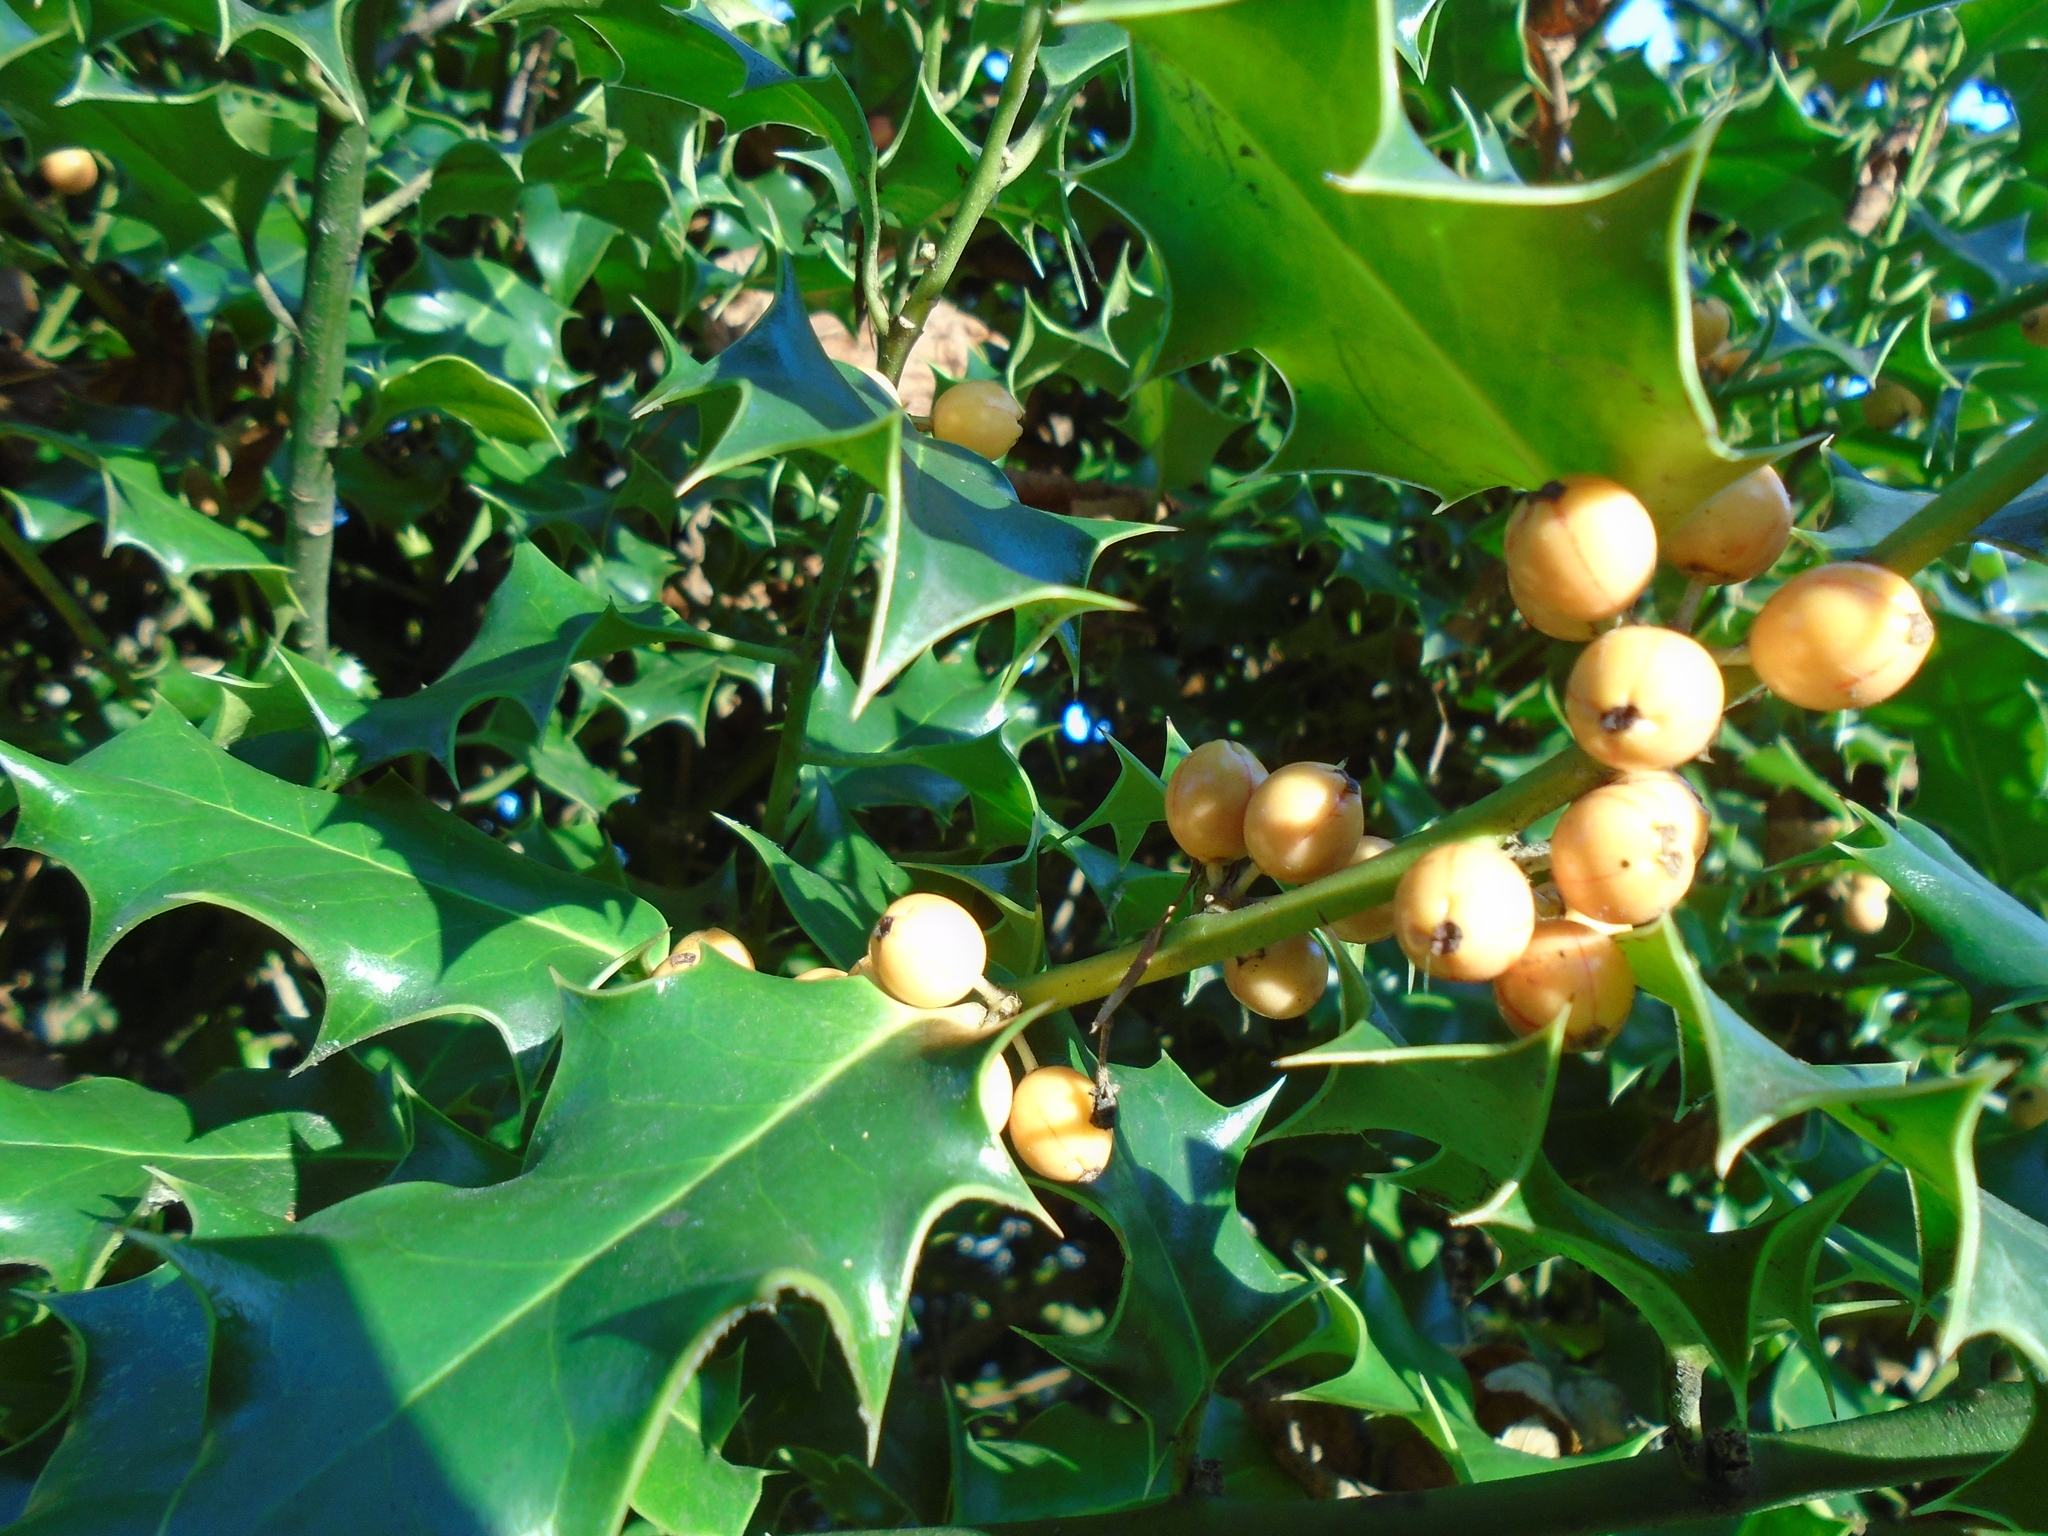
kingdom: Plantae
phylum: Tracheophyta
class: Magnoliopsida
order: Aquifoliales
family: Aquifoliaceae
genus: Ilex
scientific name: Ilex aquifolium
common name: English holly
